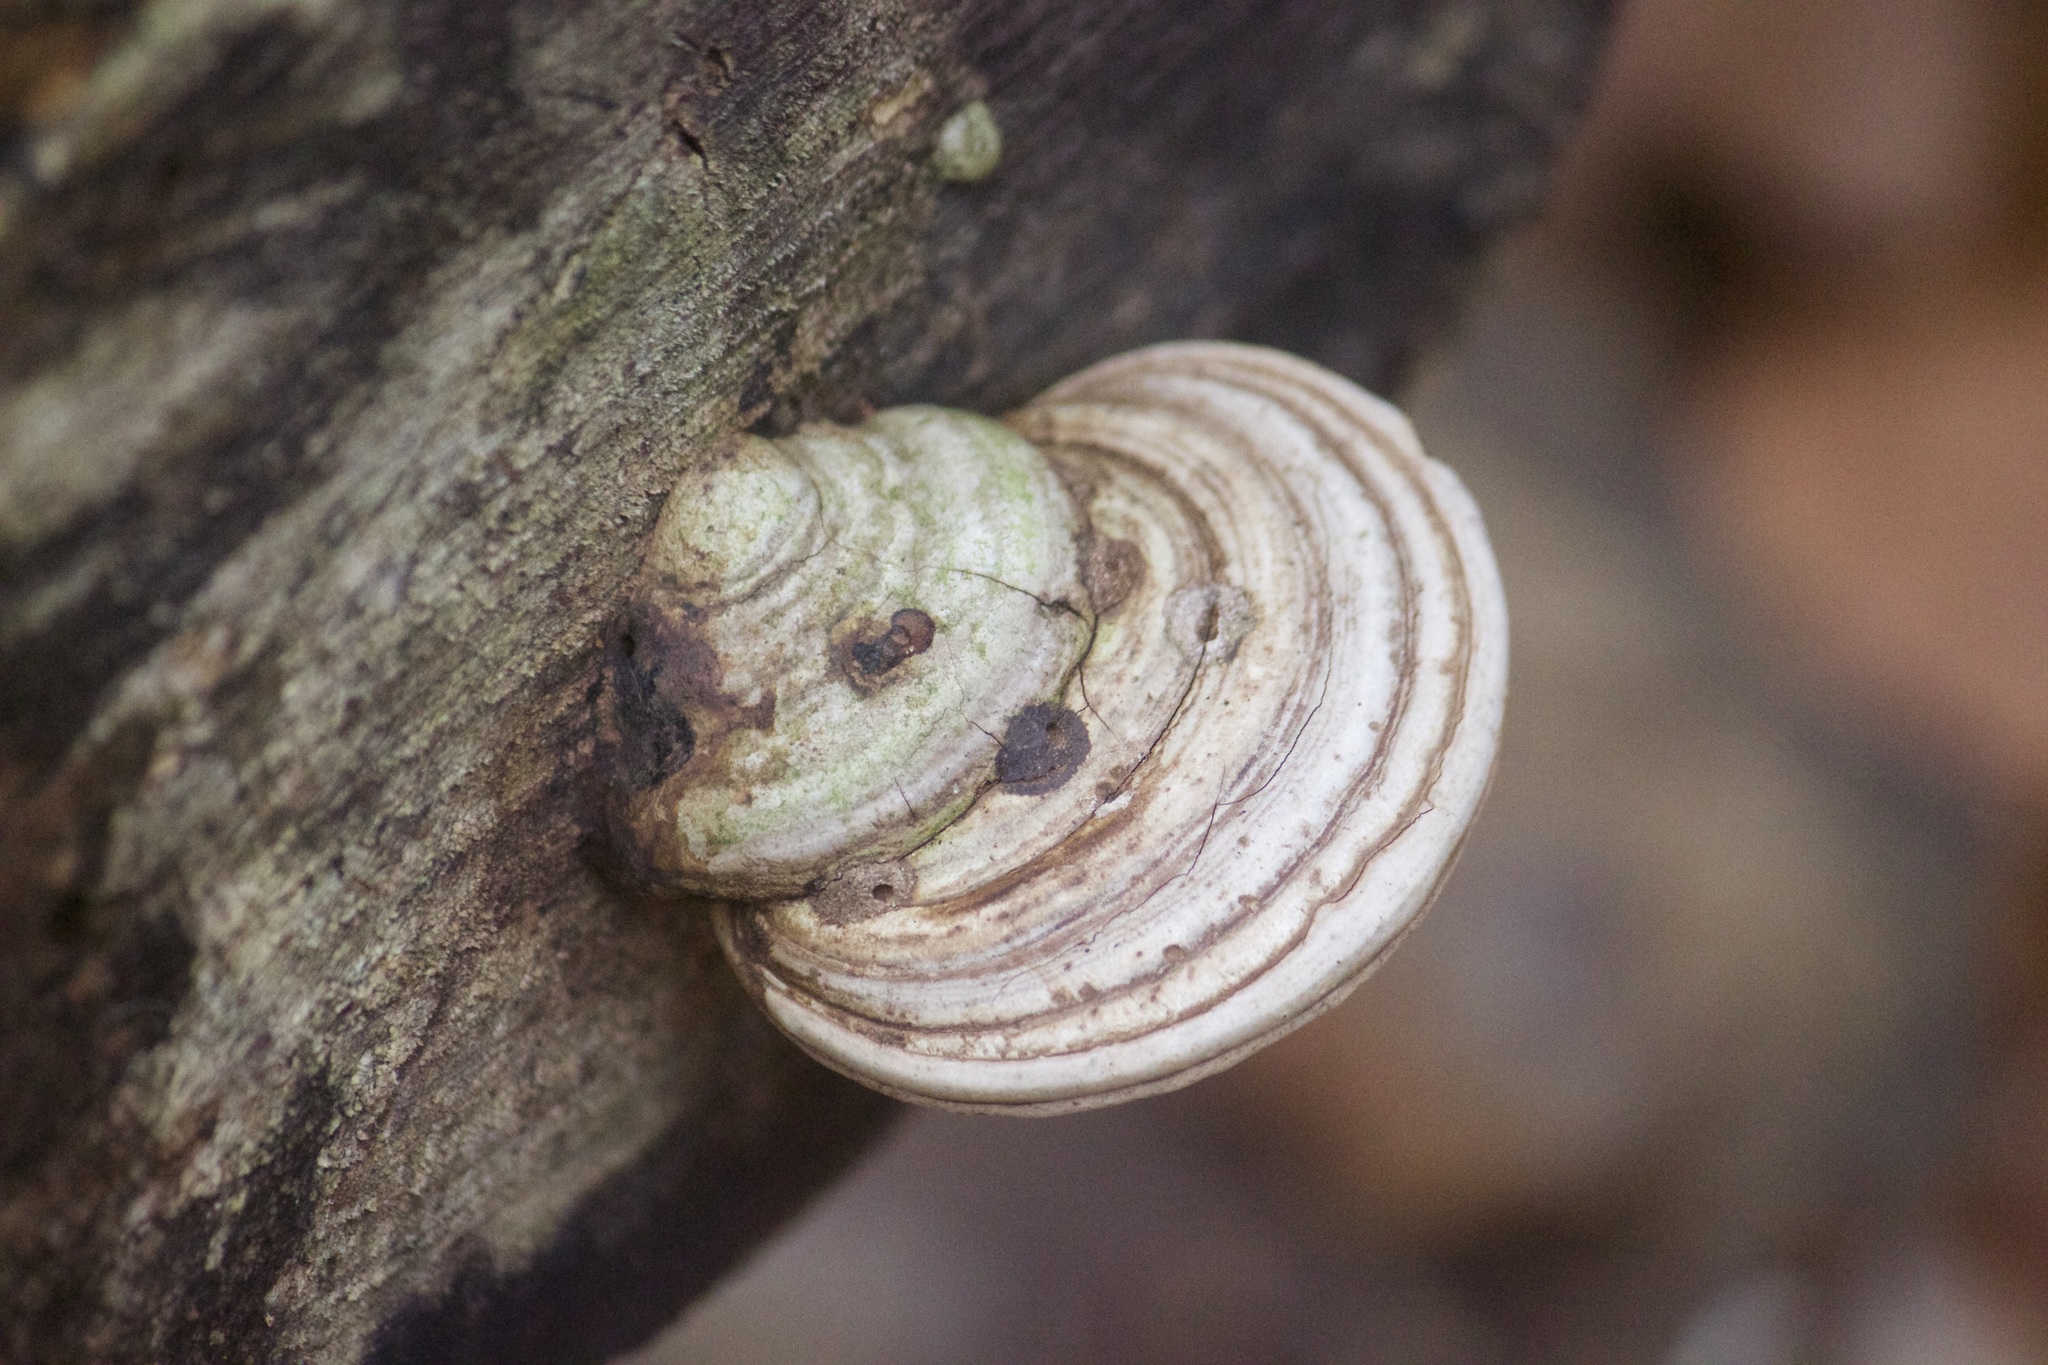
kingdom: Fungi
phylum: Basidiomycota
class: Agaricomycetes
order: Polyporales
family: Polyporaceae
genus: Ganoderma
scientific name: Ganoderma applanatum
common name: Artist's bracket
